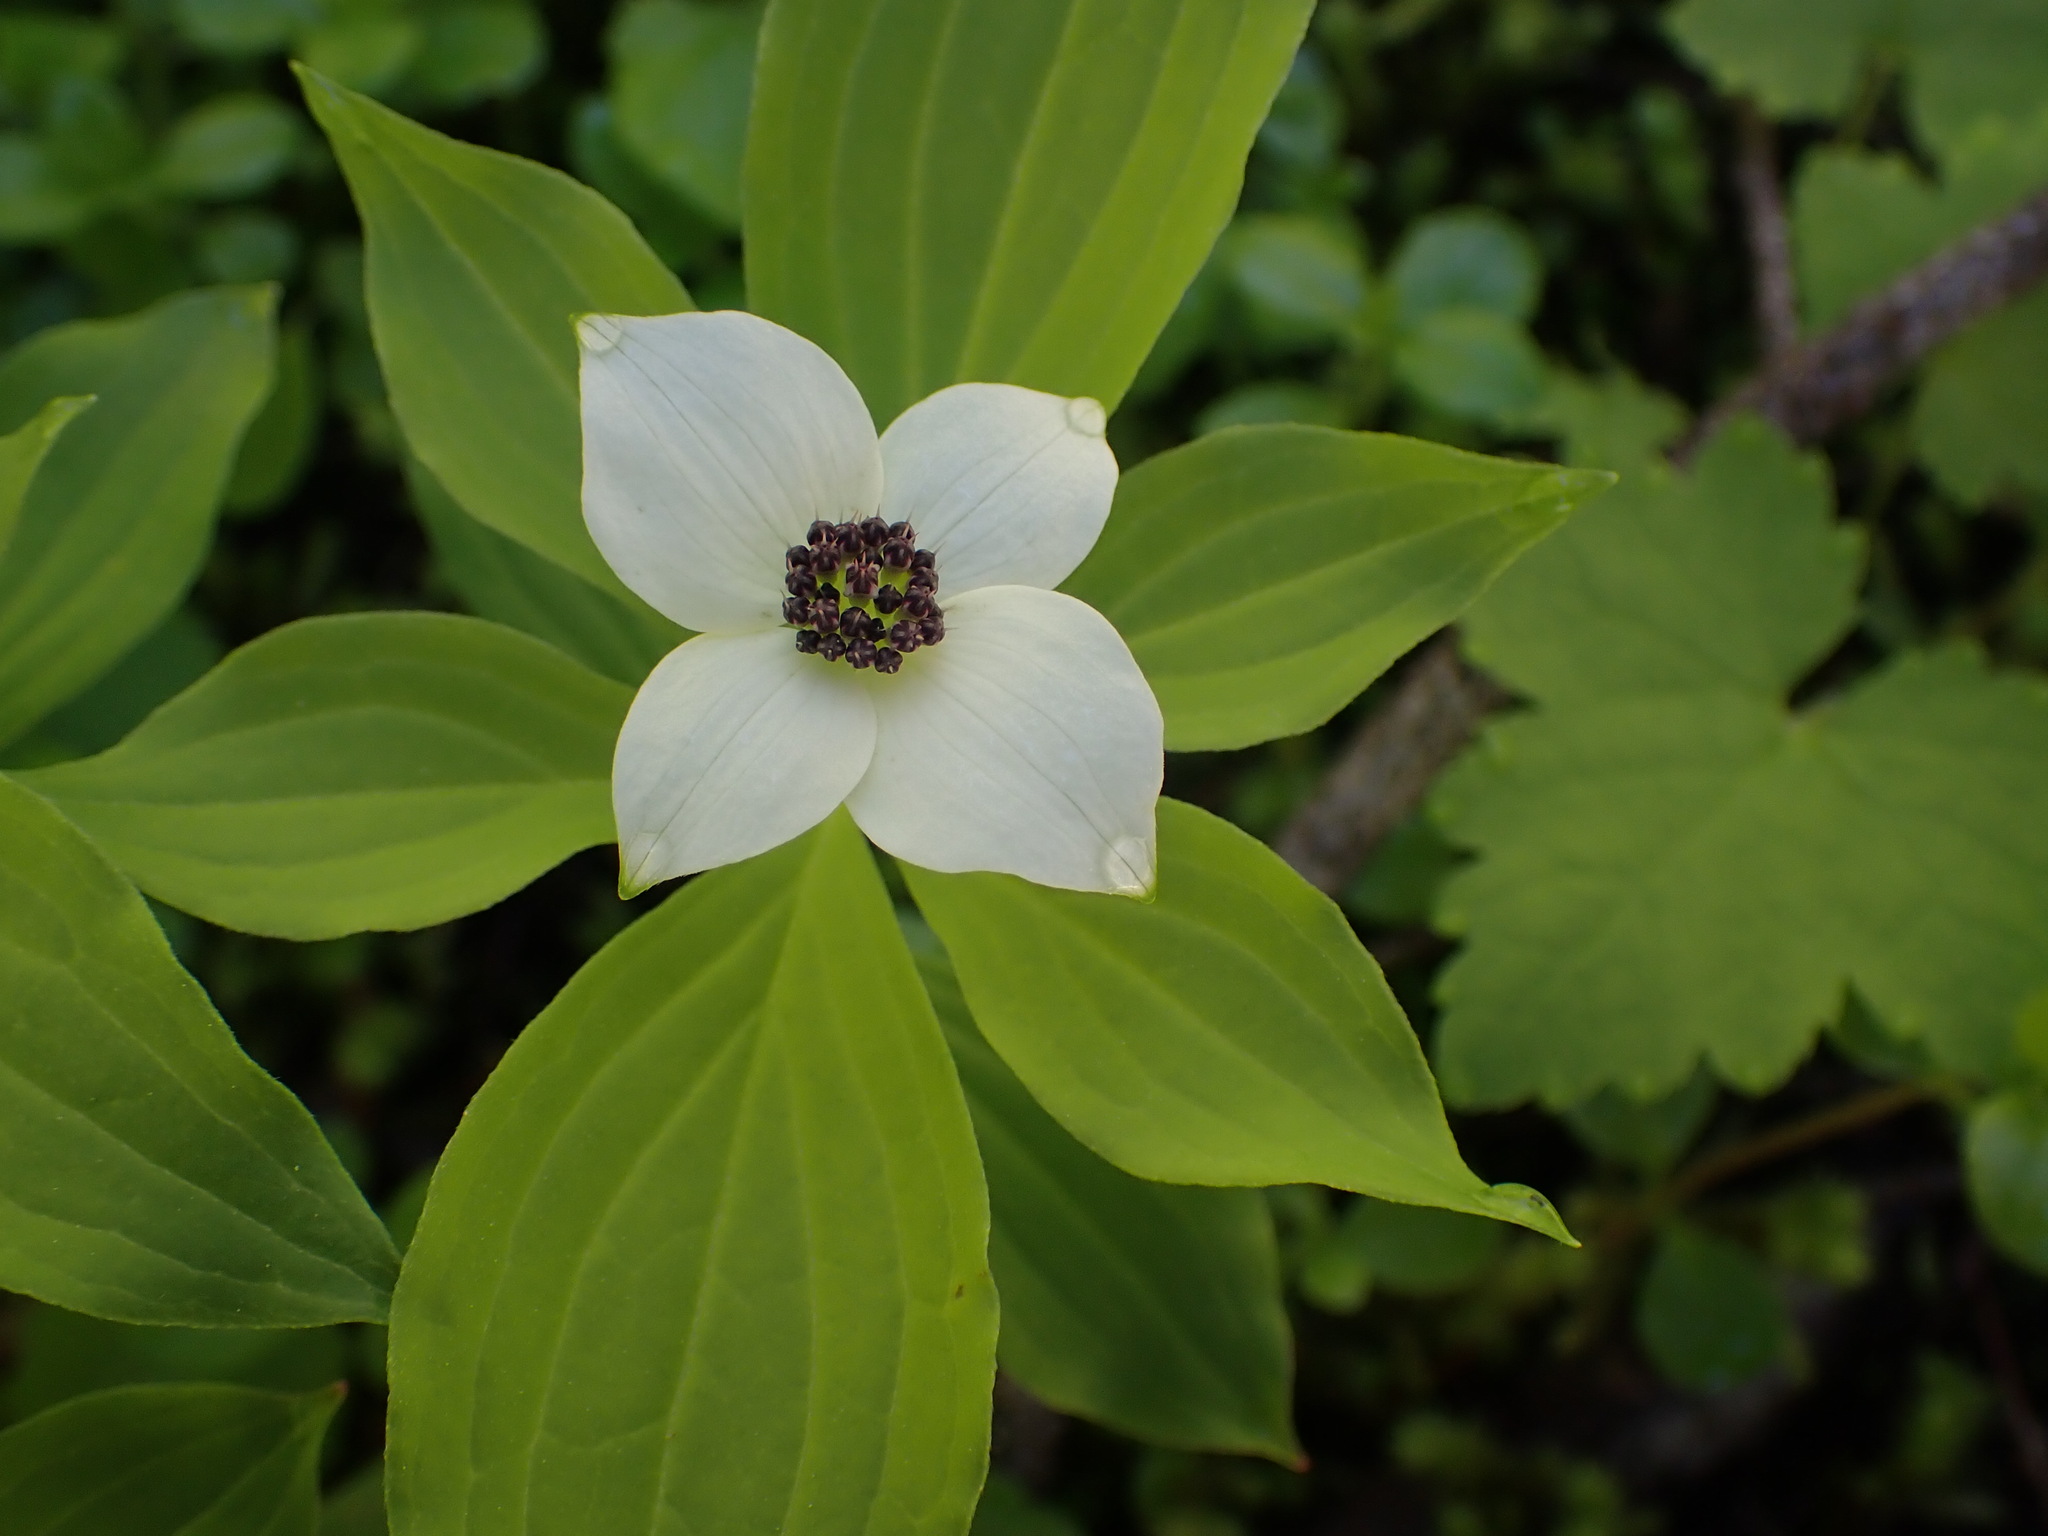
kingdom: Plantae
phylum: Tracheophyta
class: Magnoliopsida
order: Cornales
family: Cornaceae
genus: Cornus
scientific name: Cornus unalaschkensis
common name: Alaska bunchberry
